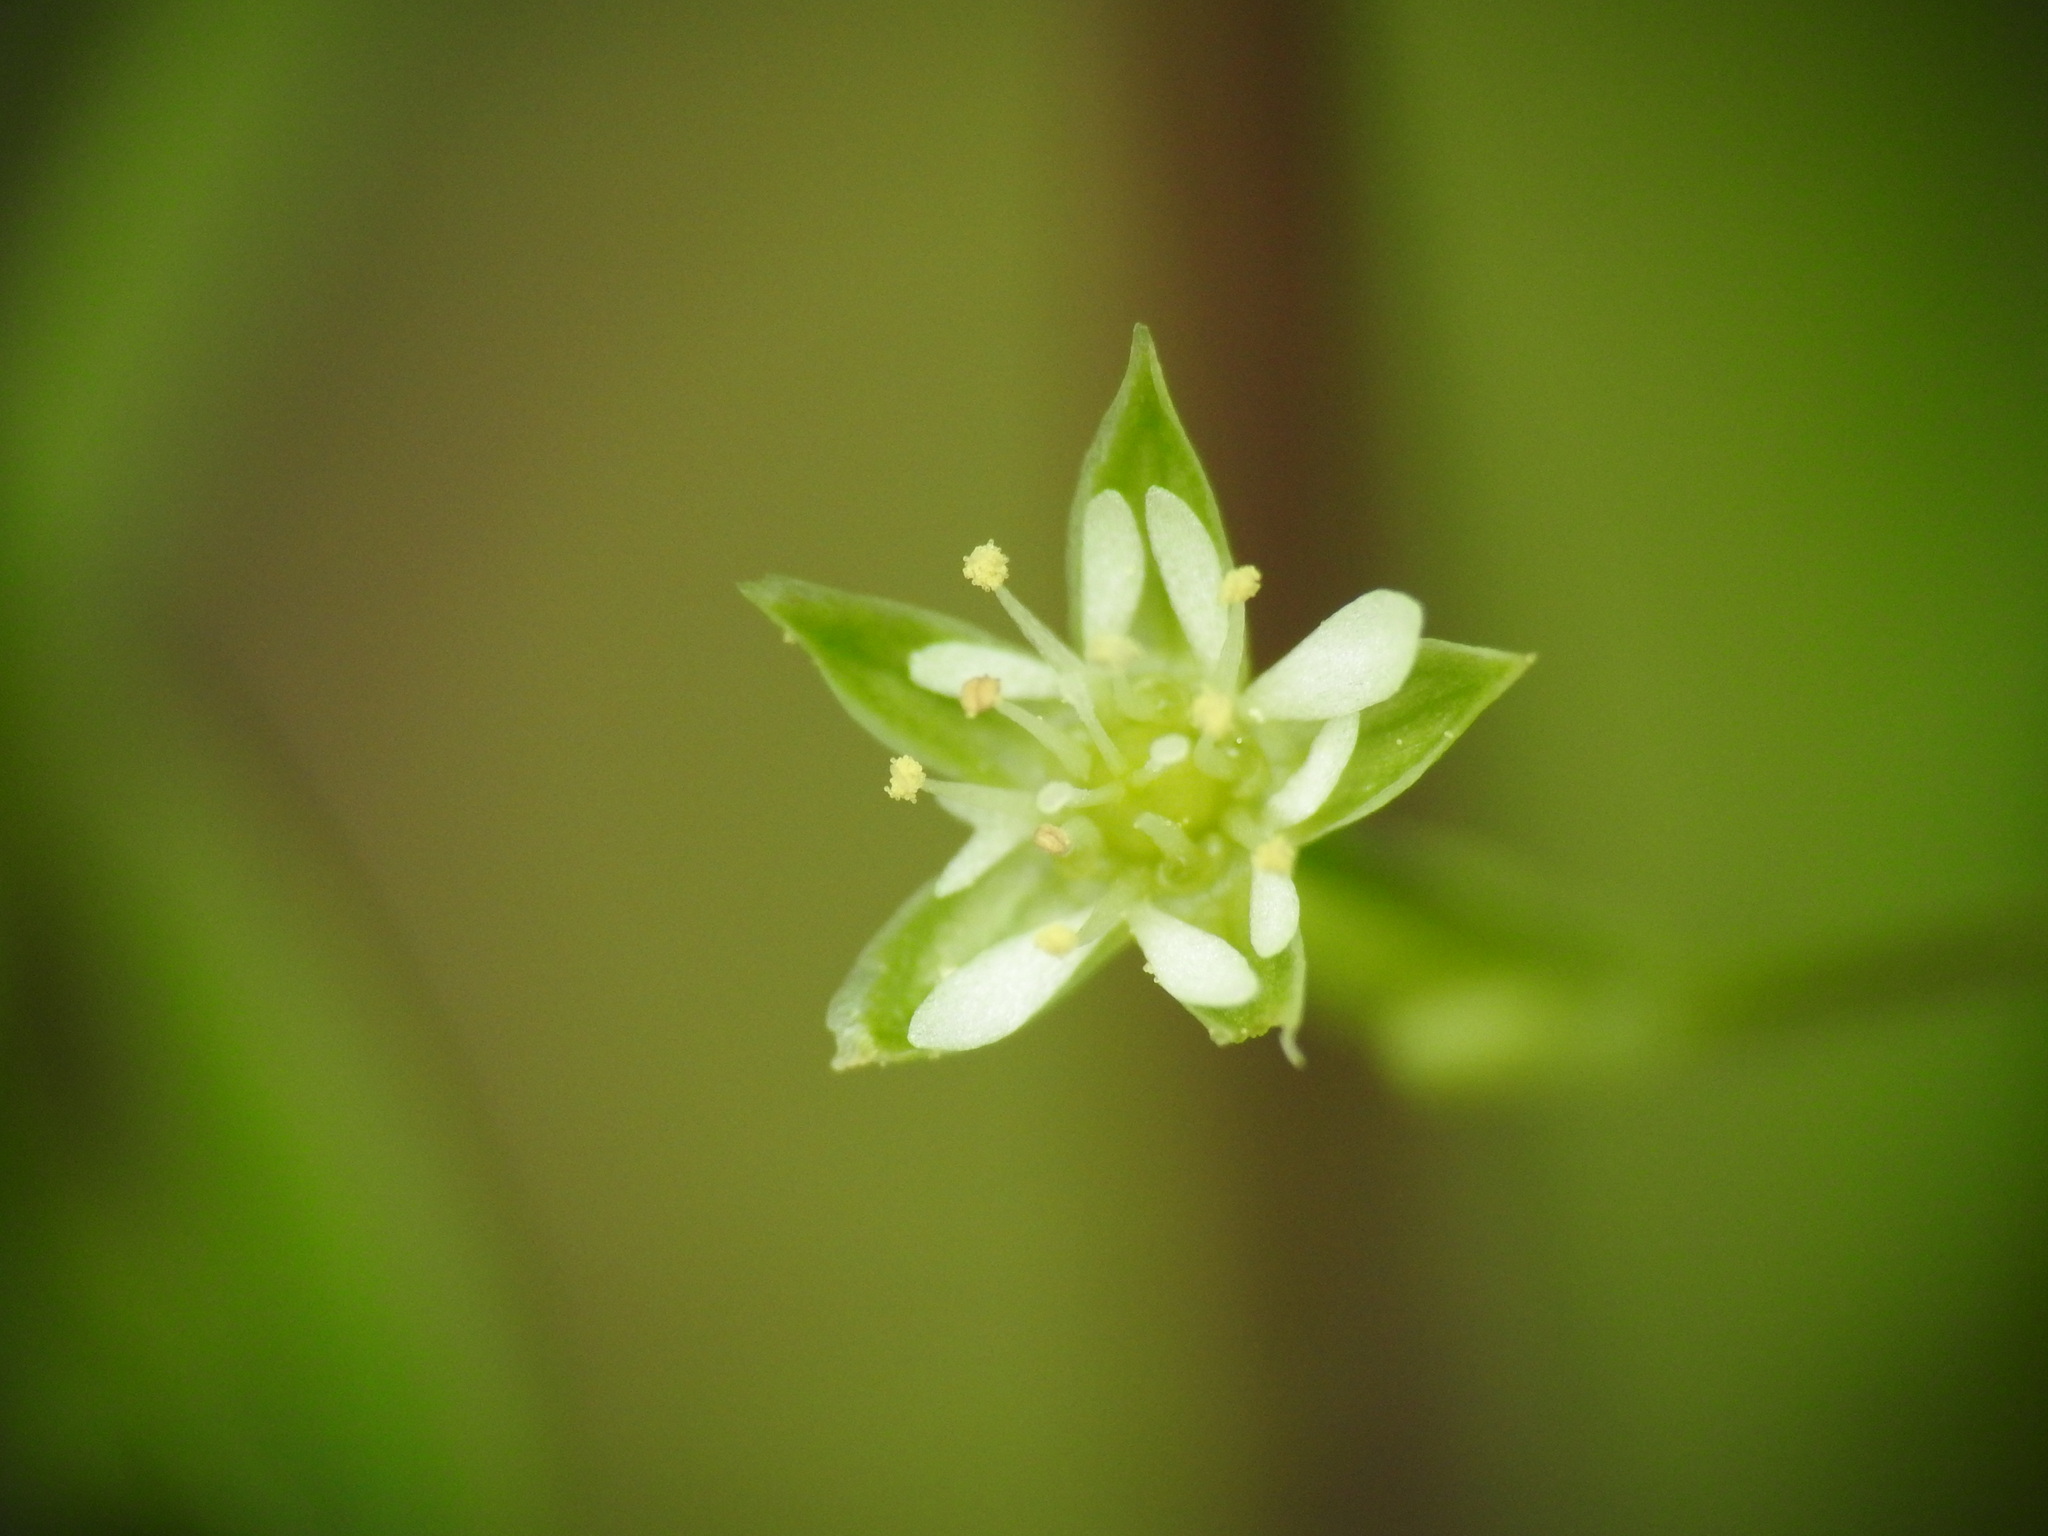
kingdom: Plantae
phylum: Tracheophyta
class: Magnoliopsida
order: Caryophyllales
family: Caryophyllaceae
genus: Stellaria
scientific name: Stellaria alsine
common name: Bog stitchwort
